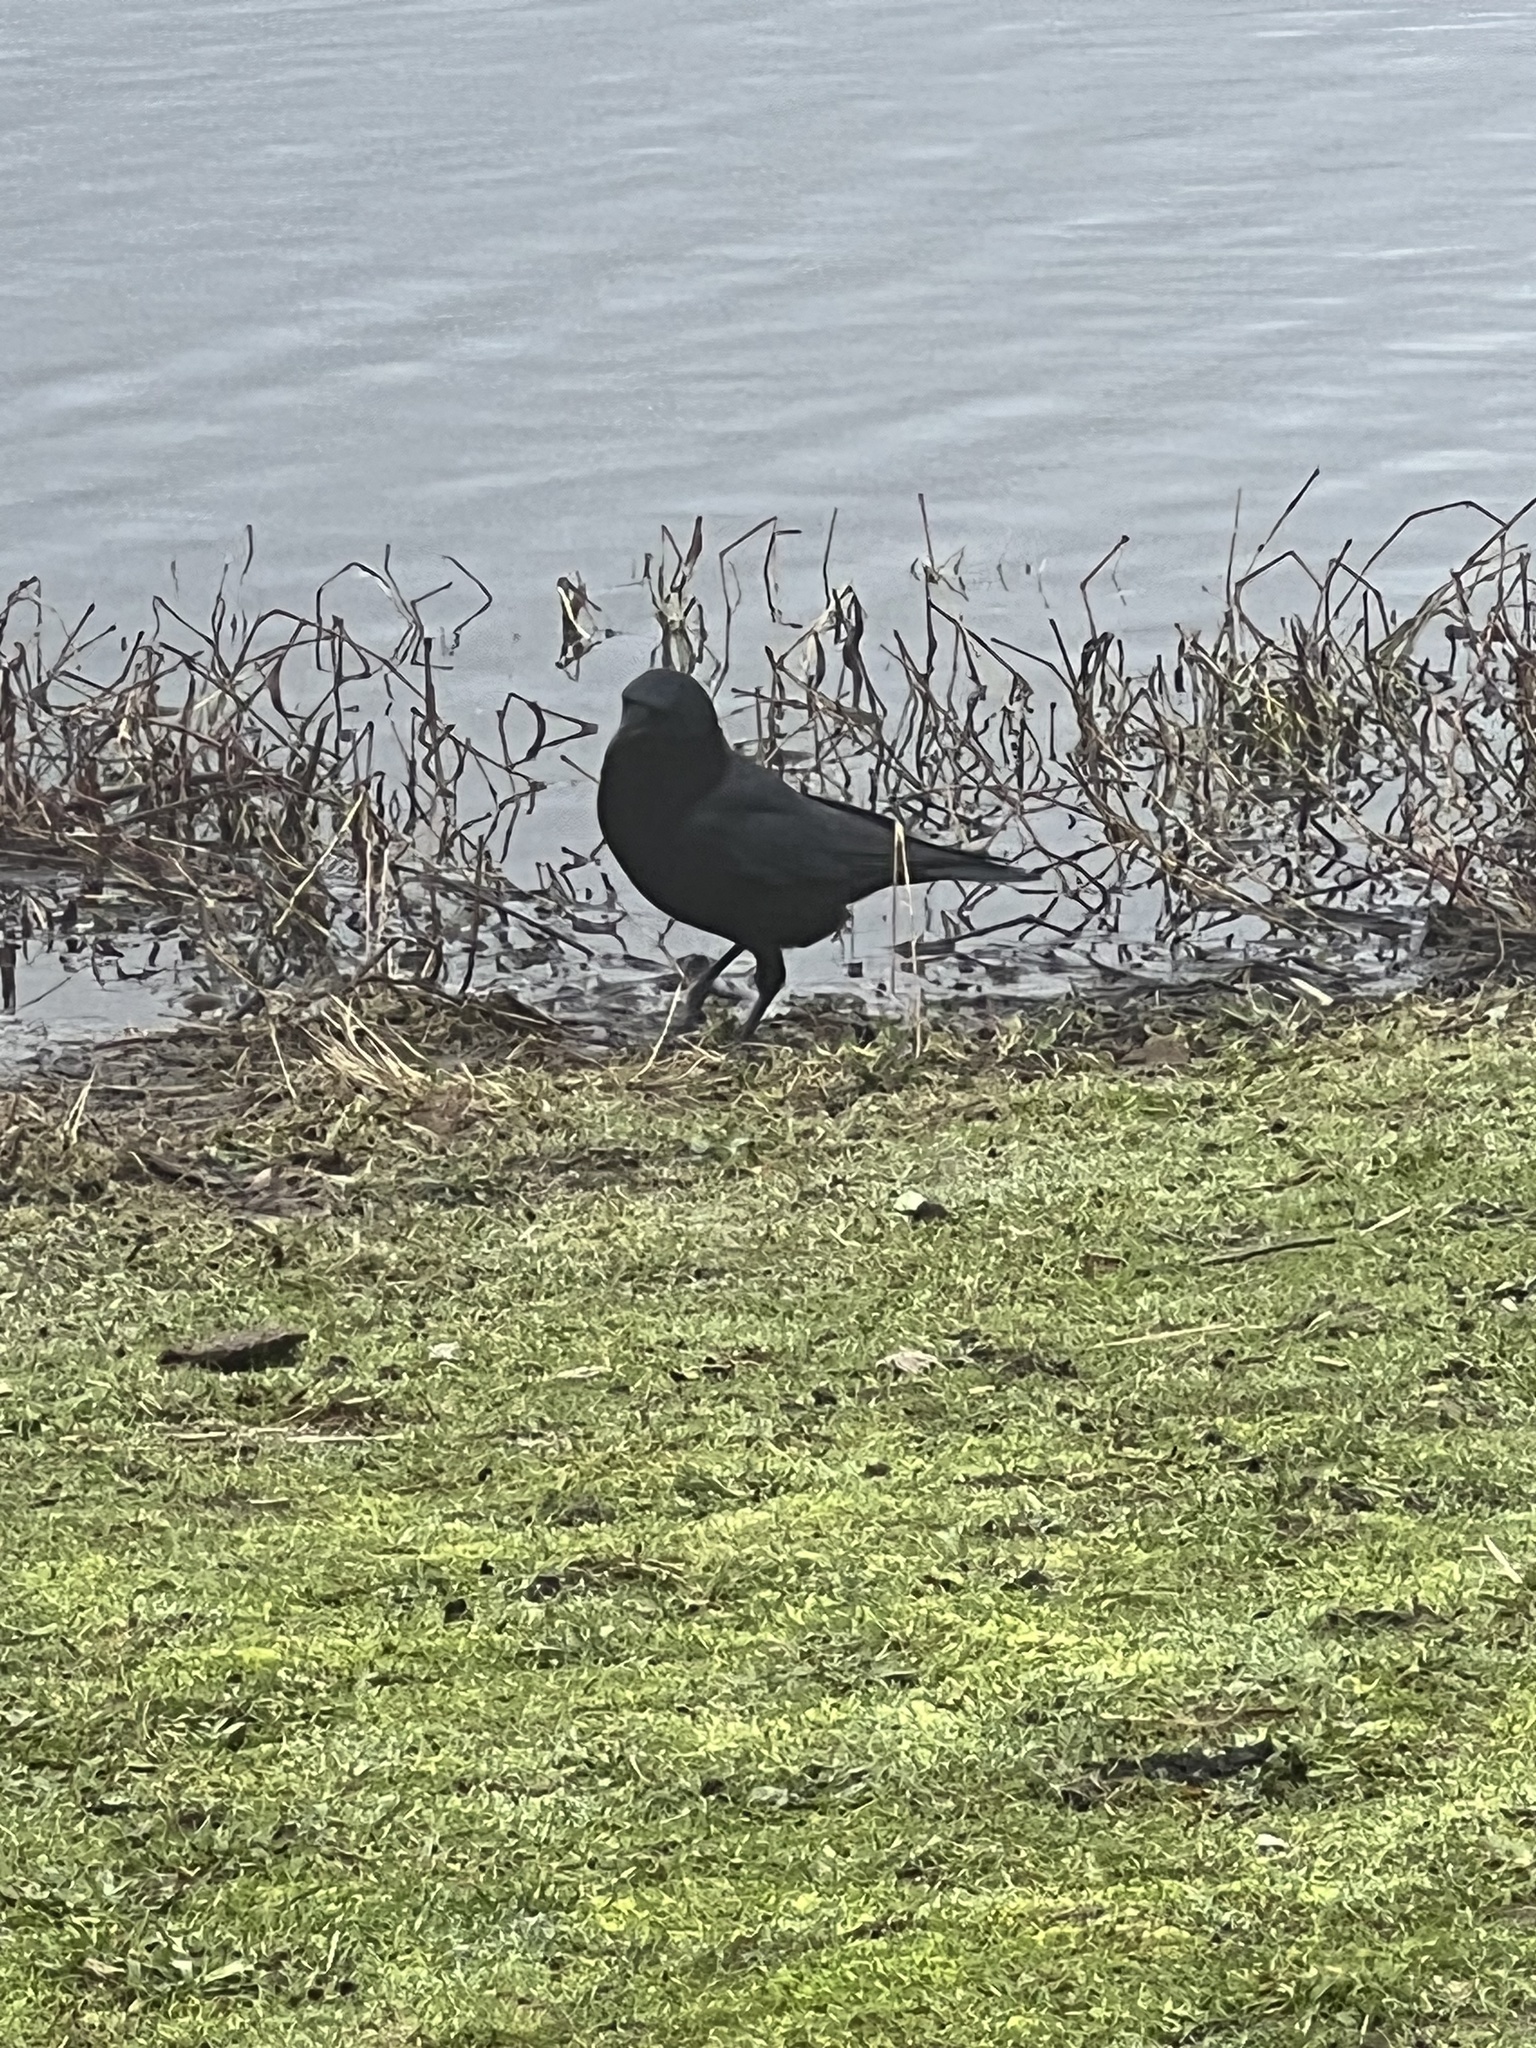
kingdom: Animalia
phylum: Chordata
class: Aves
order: Passeriformes
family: Corvidae
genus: Corvus
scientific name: Corvus brachyrhynchos
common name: American crow
